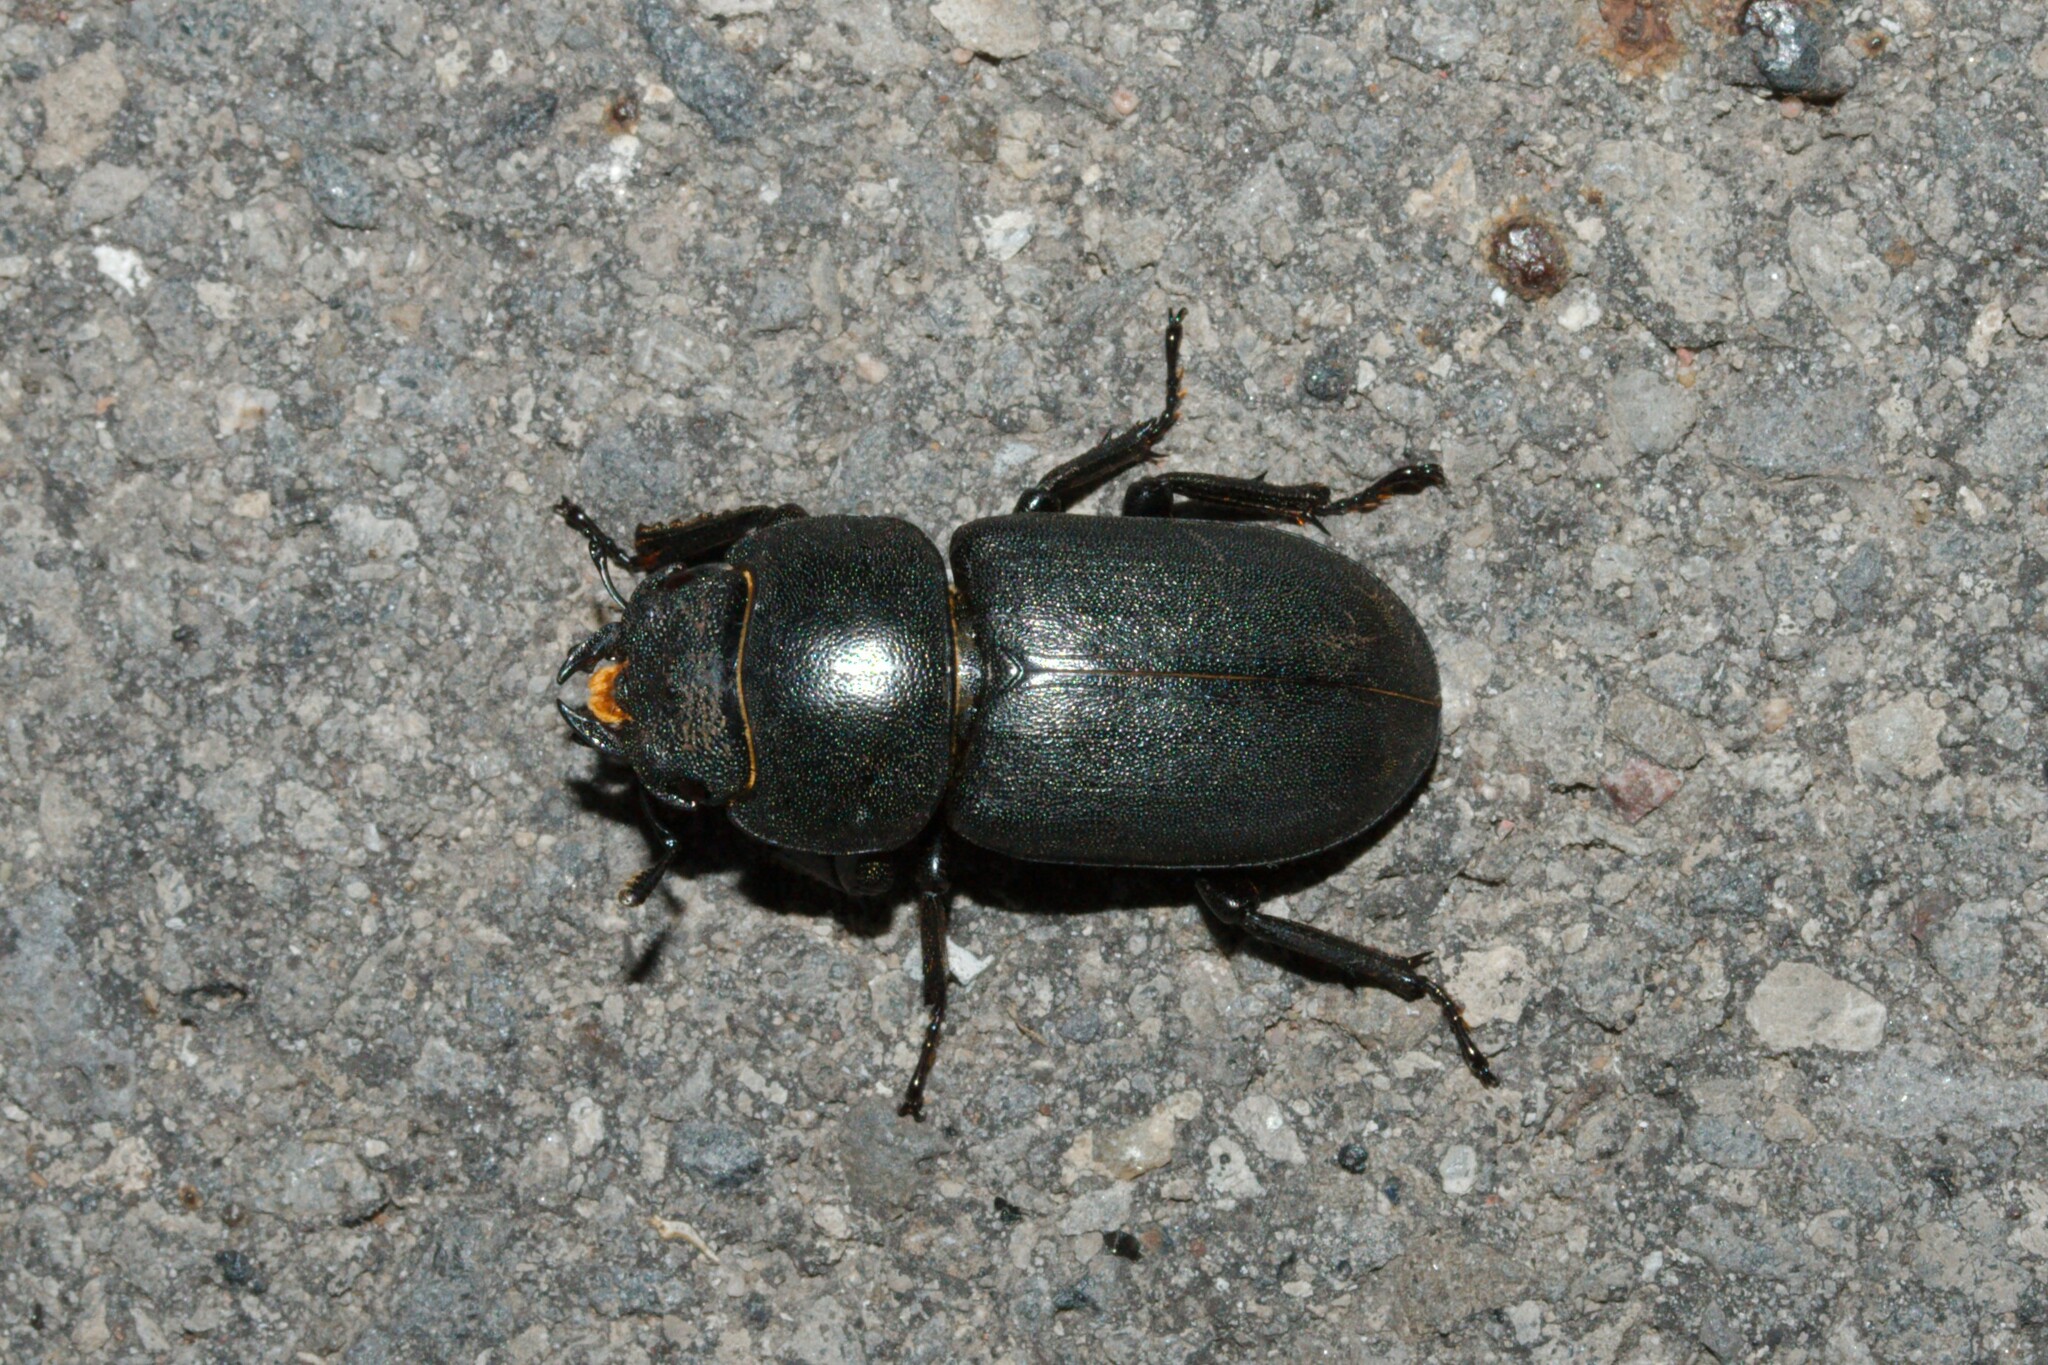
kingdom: Animalia
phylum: Arthropoda
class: Insecta
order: Coleoptera
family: Lucanidae
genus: Dorcus
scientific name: Dorcus parallelipipedus
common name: Lesser stag beetle
